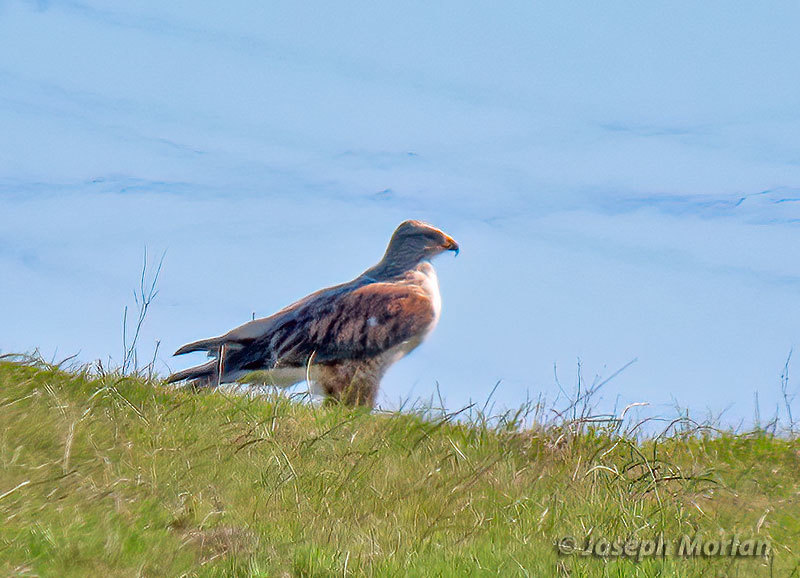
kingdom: Animalia
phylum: Chordata
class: Aves
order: Accipitriformes
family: Accipitridae
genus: Buteo
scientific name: Buteo regalis
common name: Ferruginous hawk
